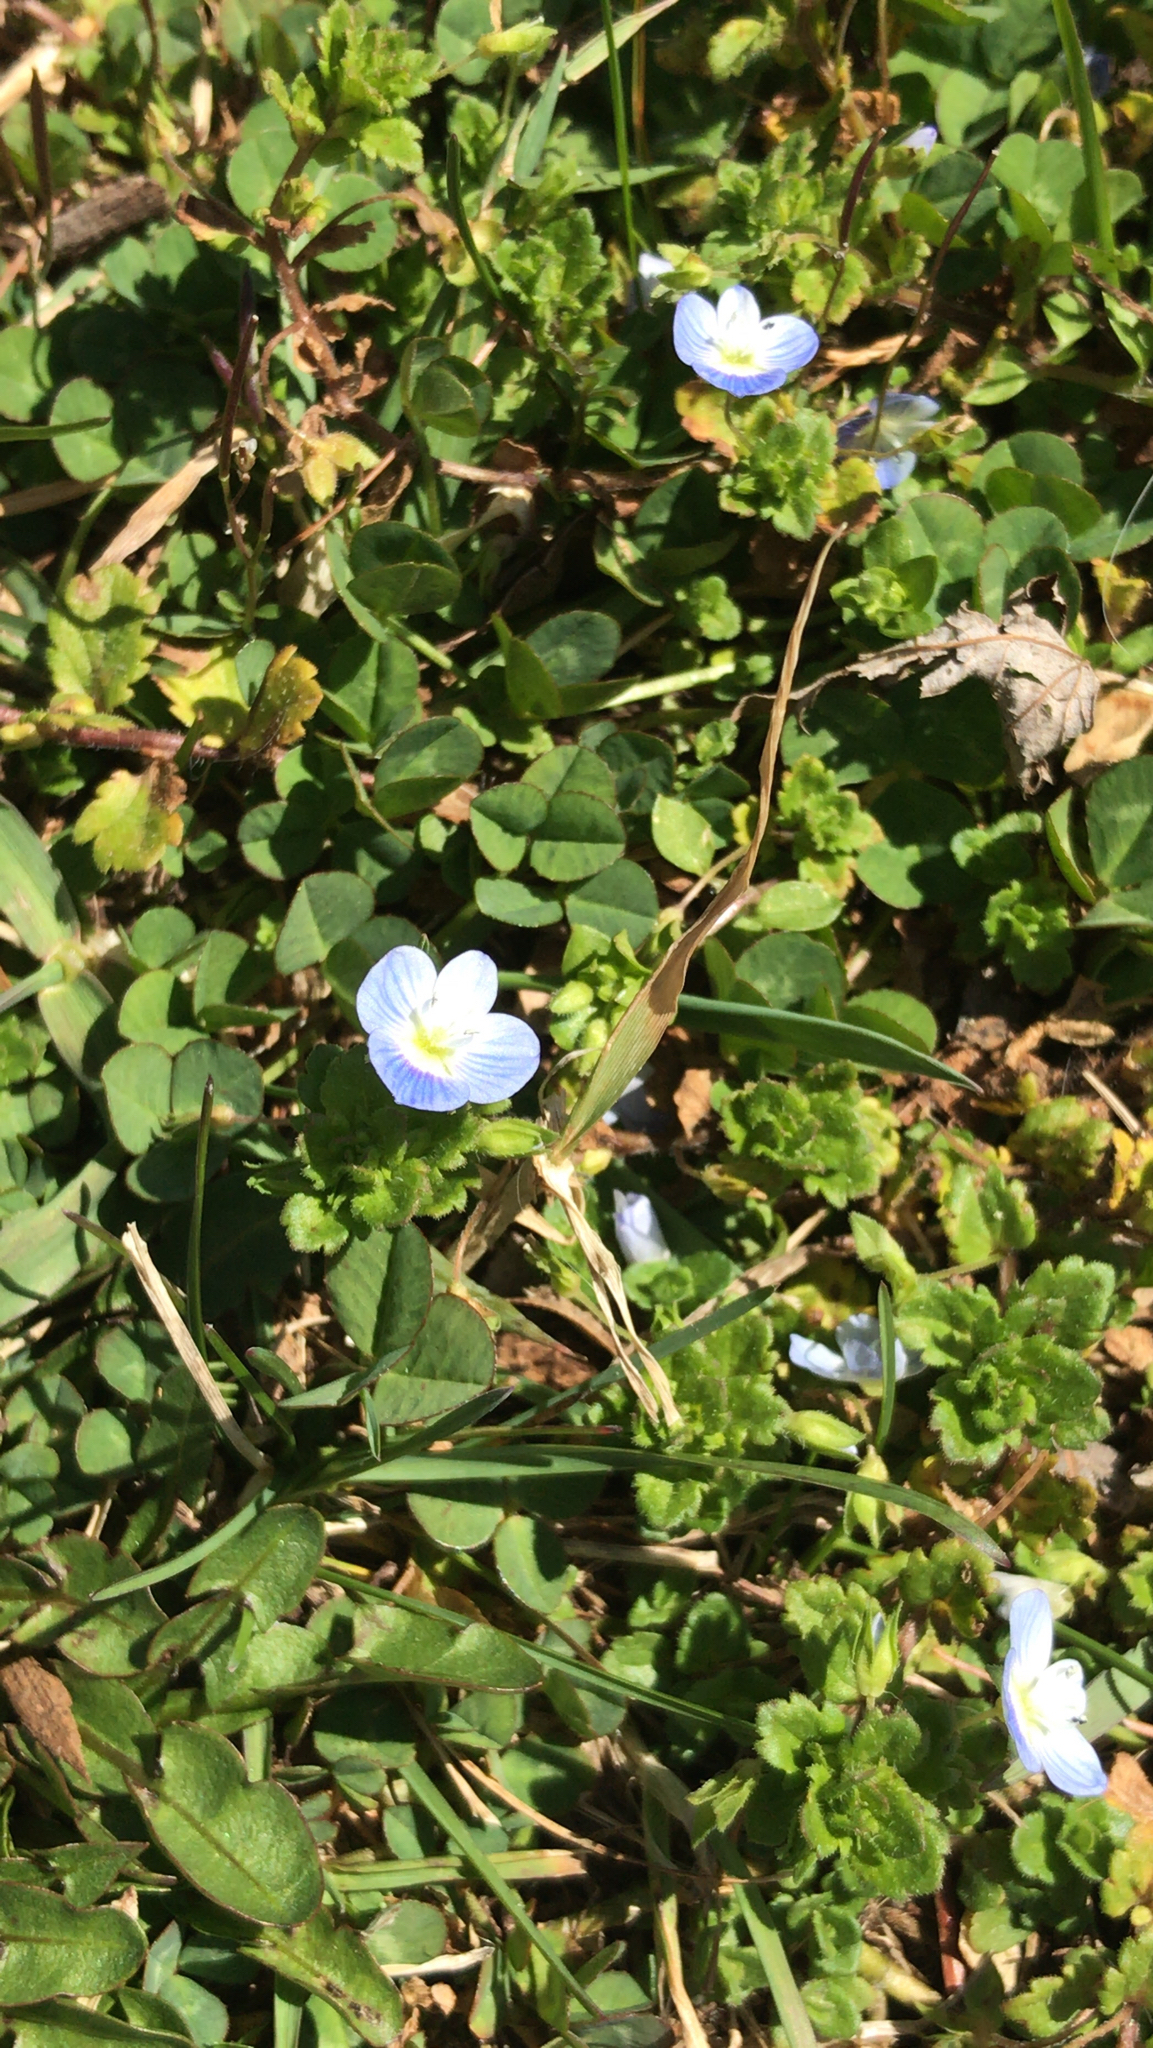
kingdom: Plantae
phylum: Tracheophyta
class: Magnoliopsida
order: Lamiales
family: Plantaginaceae
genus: Veronica
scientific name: Veronica persica
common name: Common field-speedwell
